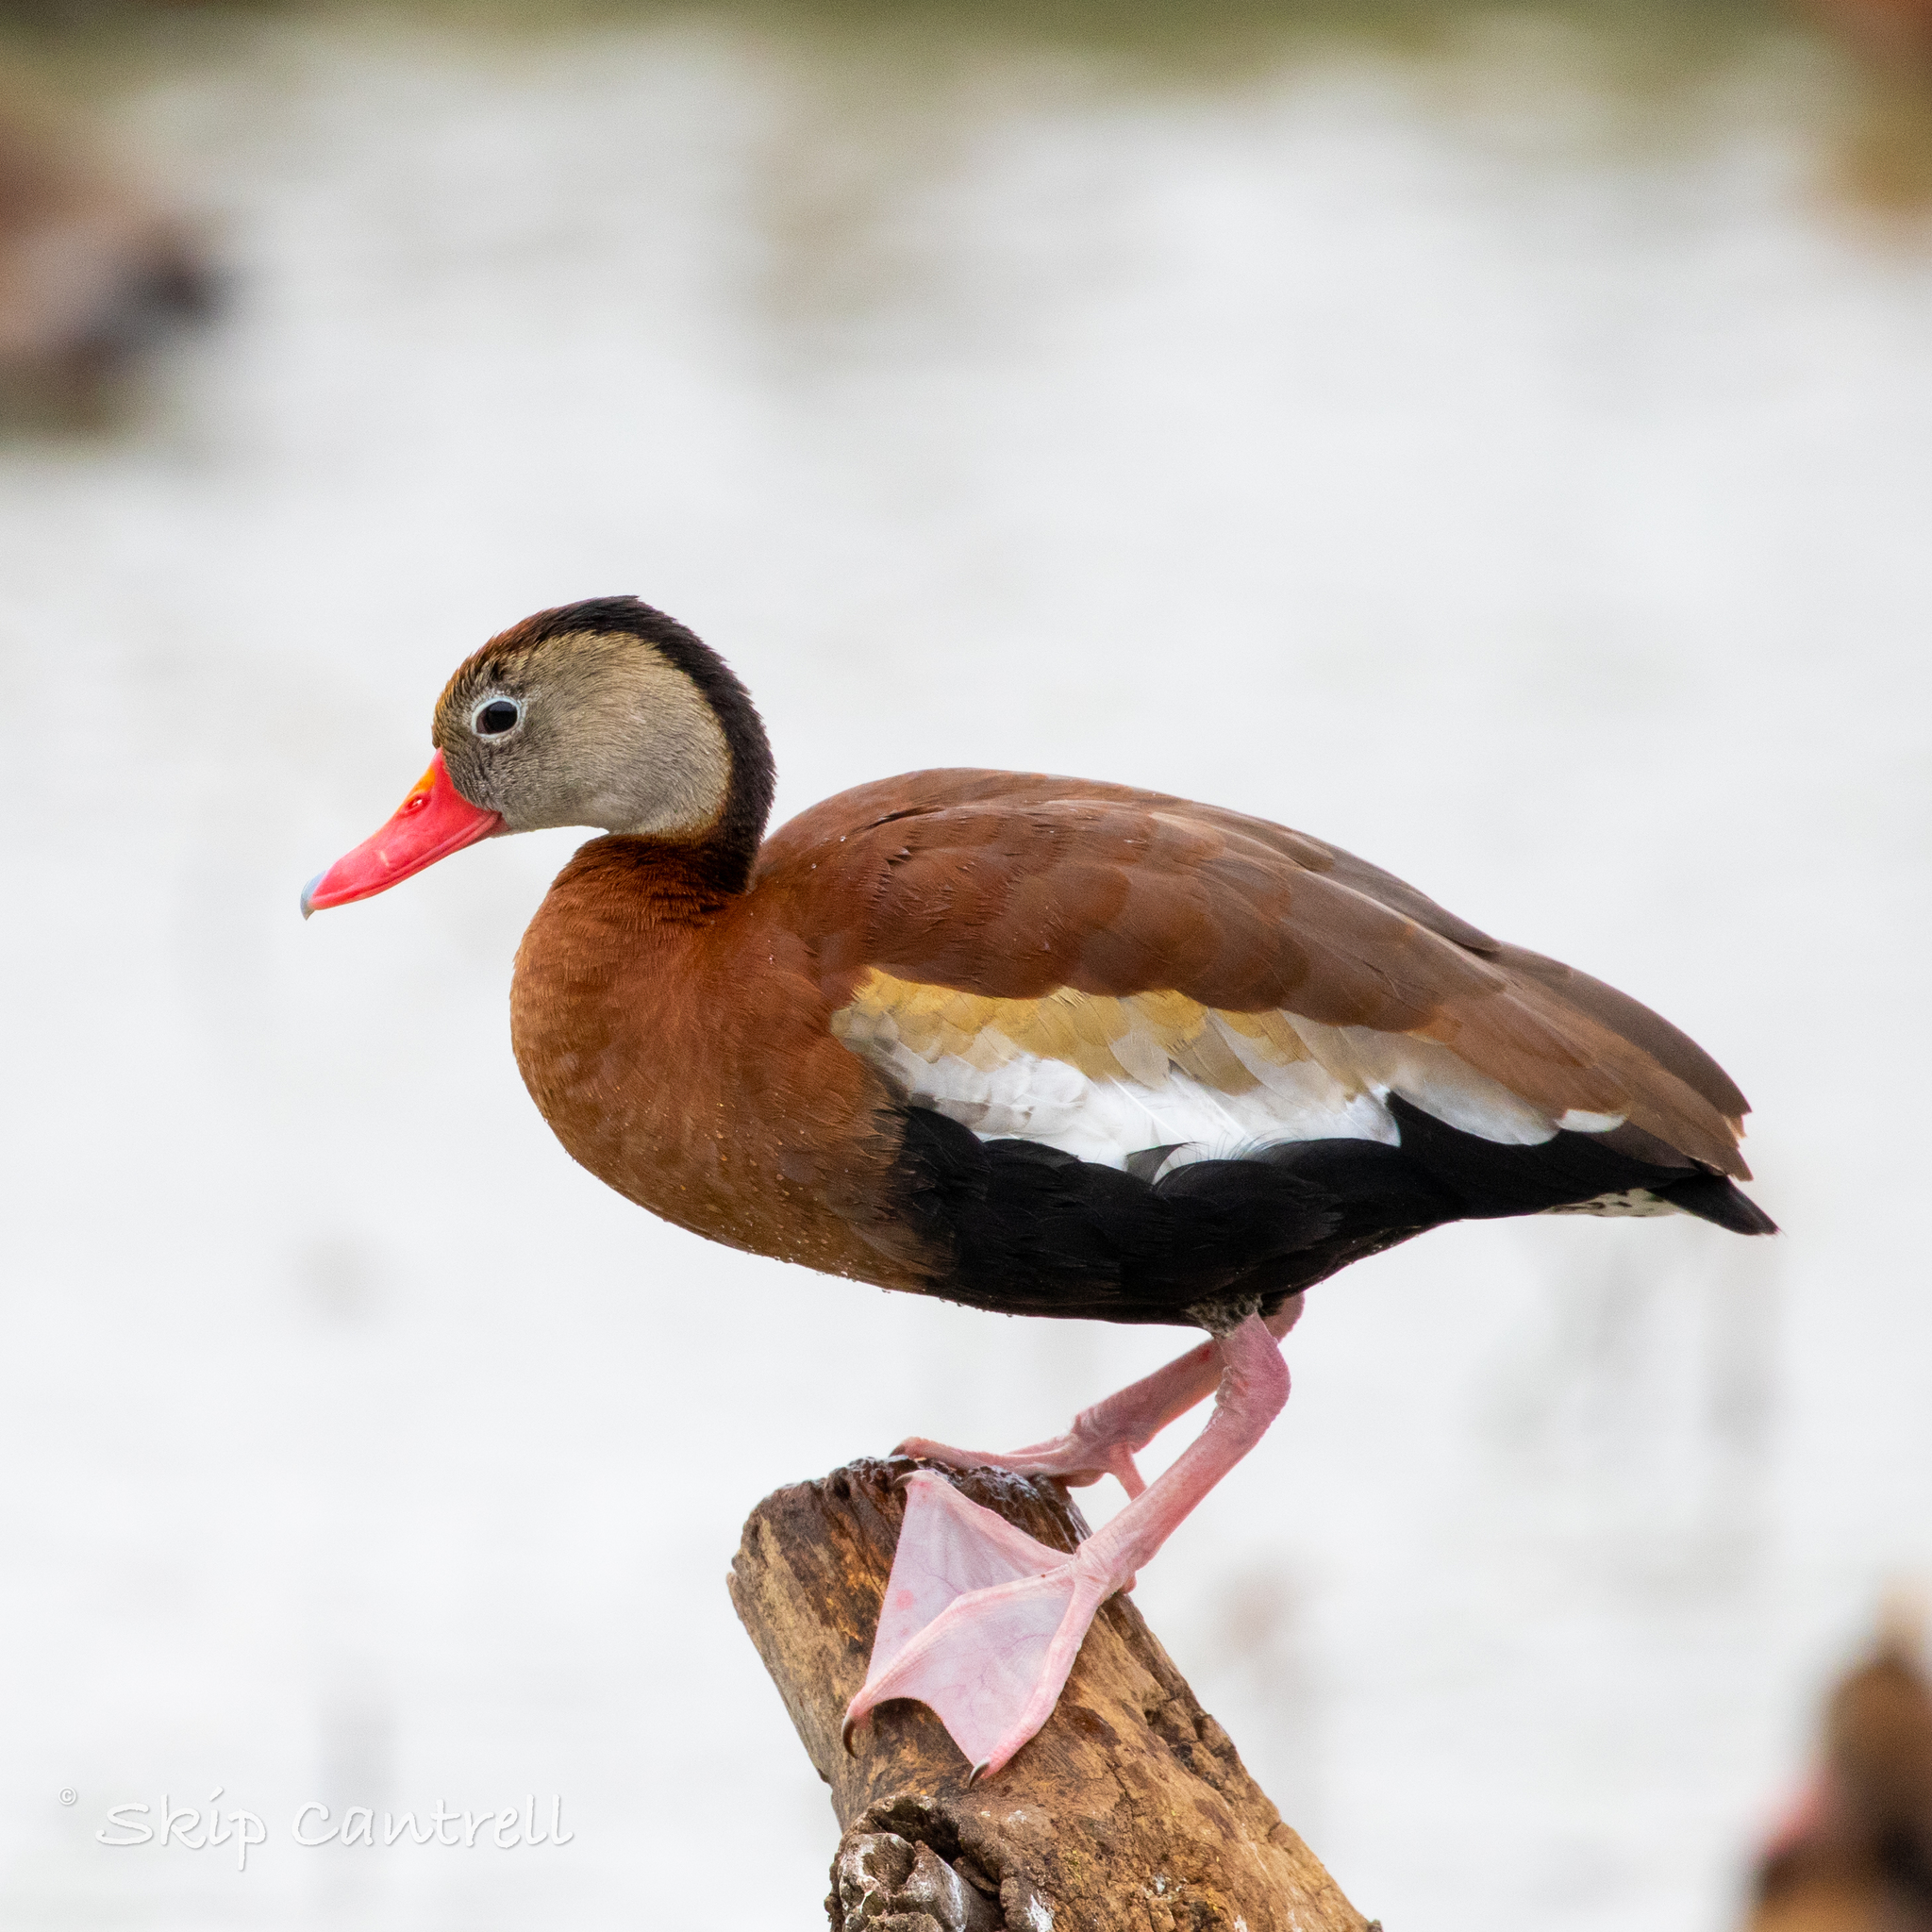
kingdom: Animalia
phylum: Chordata
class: Aves
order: Anseriformes
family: Anatidae
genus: Dendrocygna
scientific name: Dendrocygna autumnalis
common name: Black-bellied whistling duck
